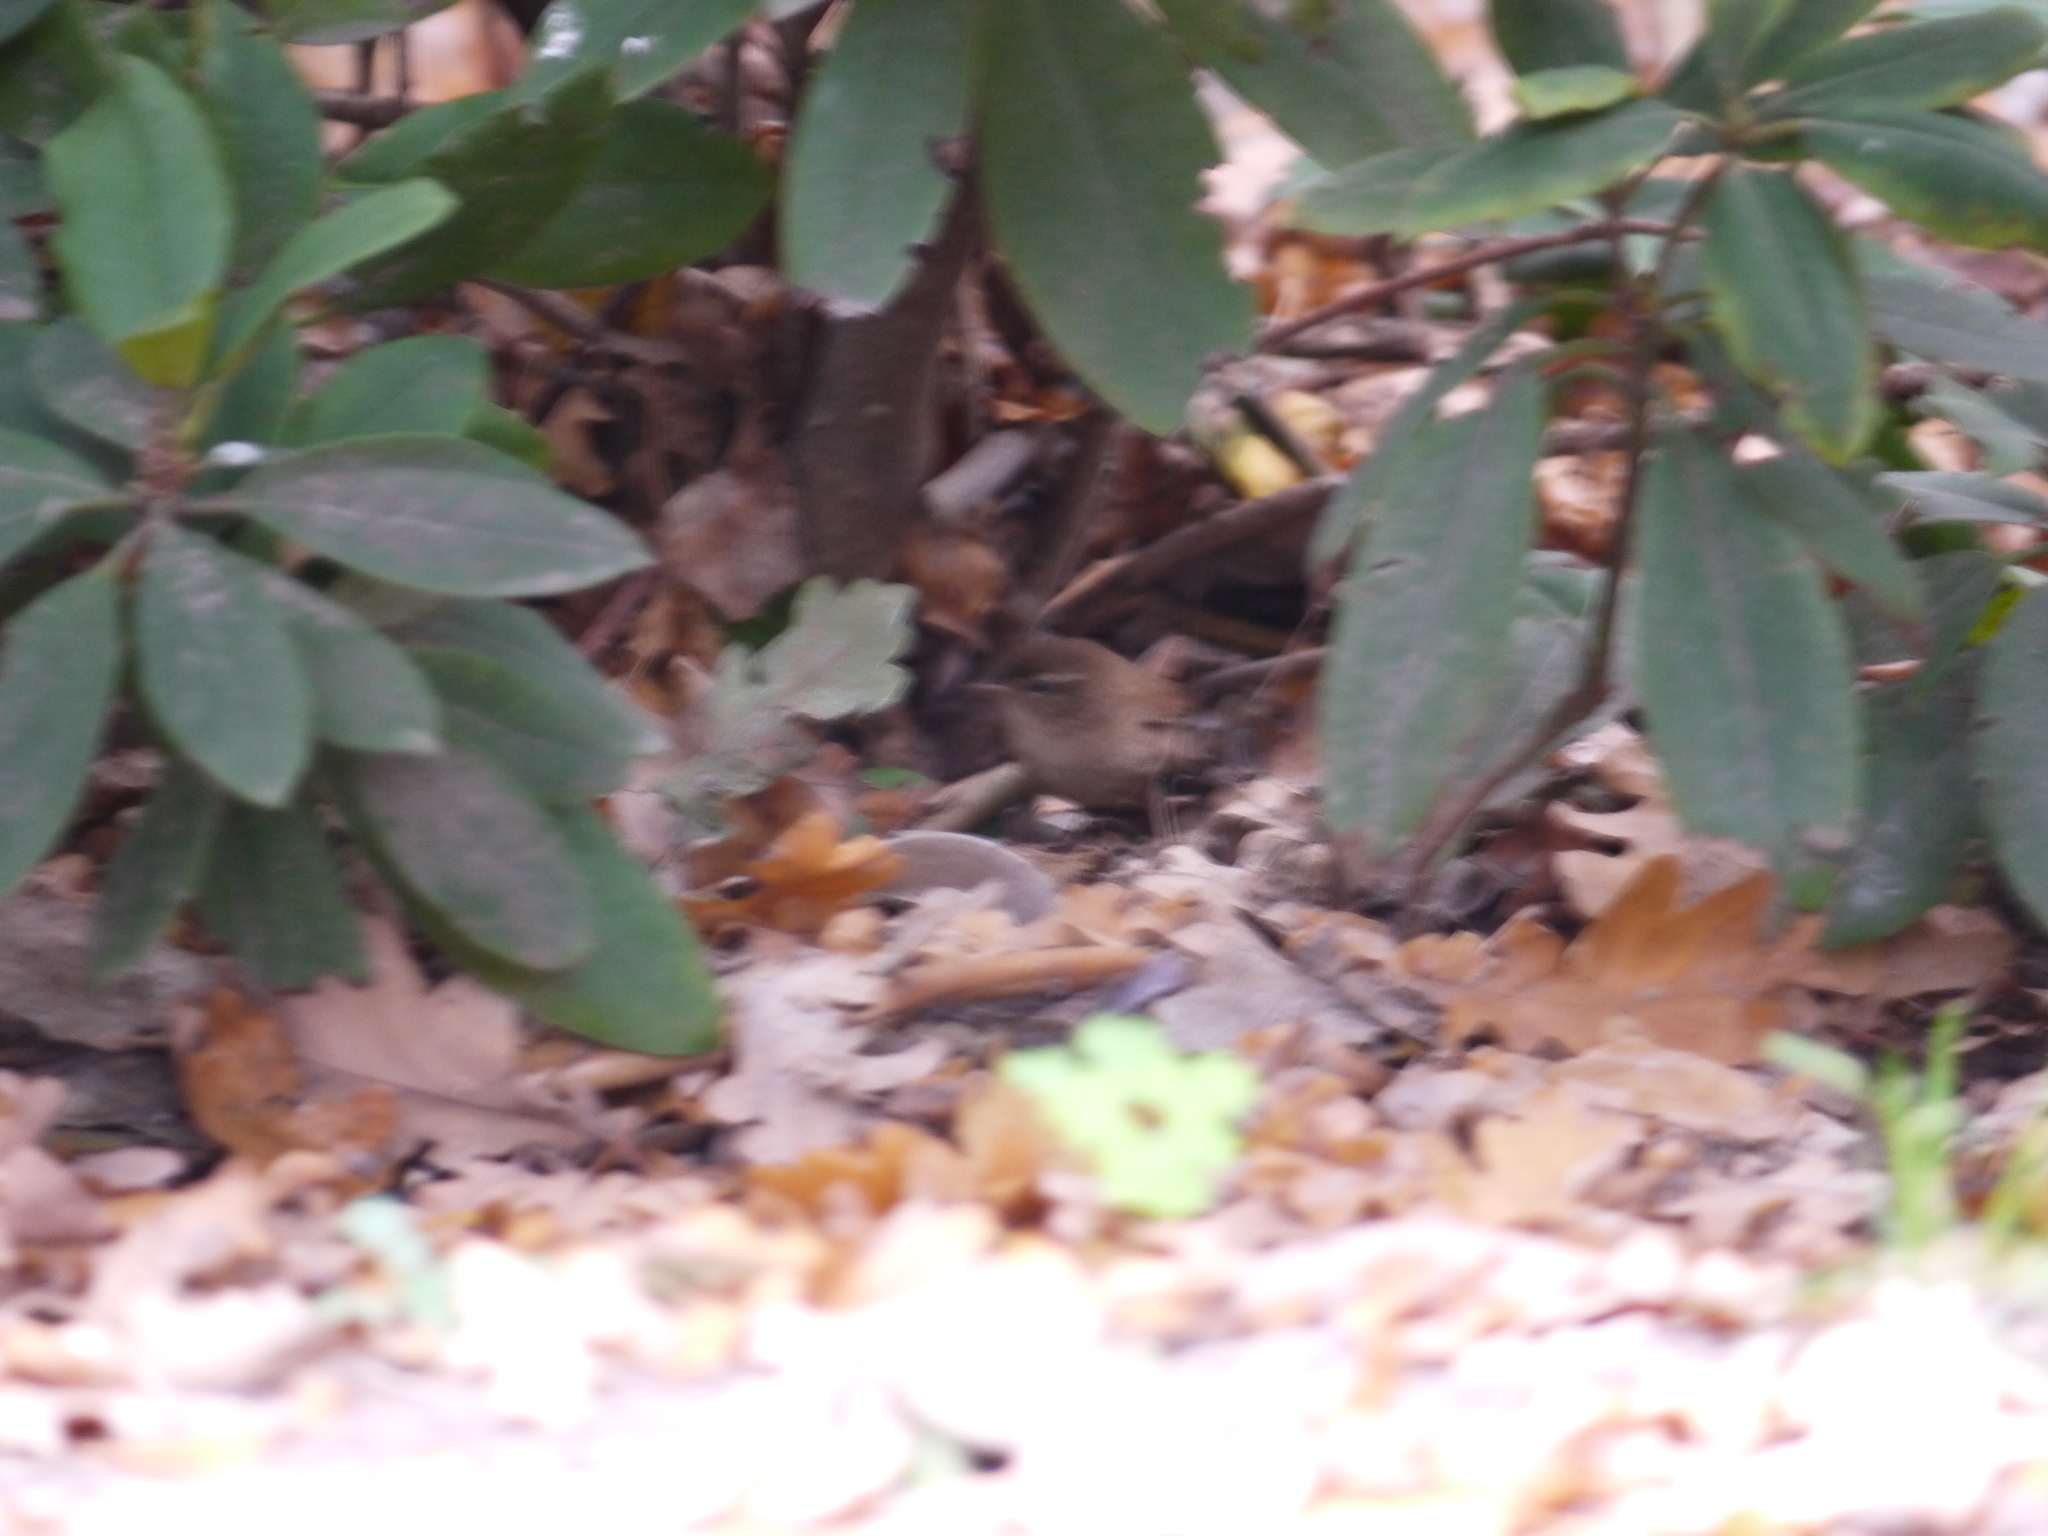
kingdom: Animalia
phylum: Chordata
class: Aves
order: Passeriformes
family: Troglodytidae
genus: Troglodytes
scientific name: Troglodytes troglodytes
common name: Eurasian wren
